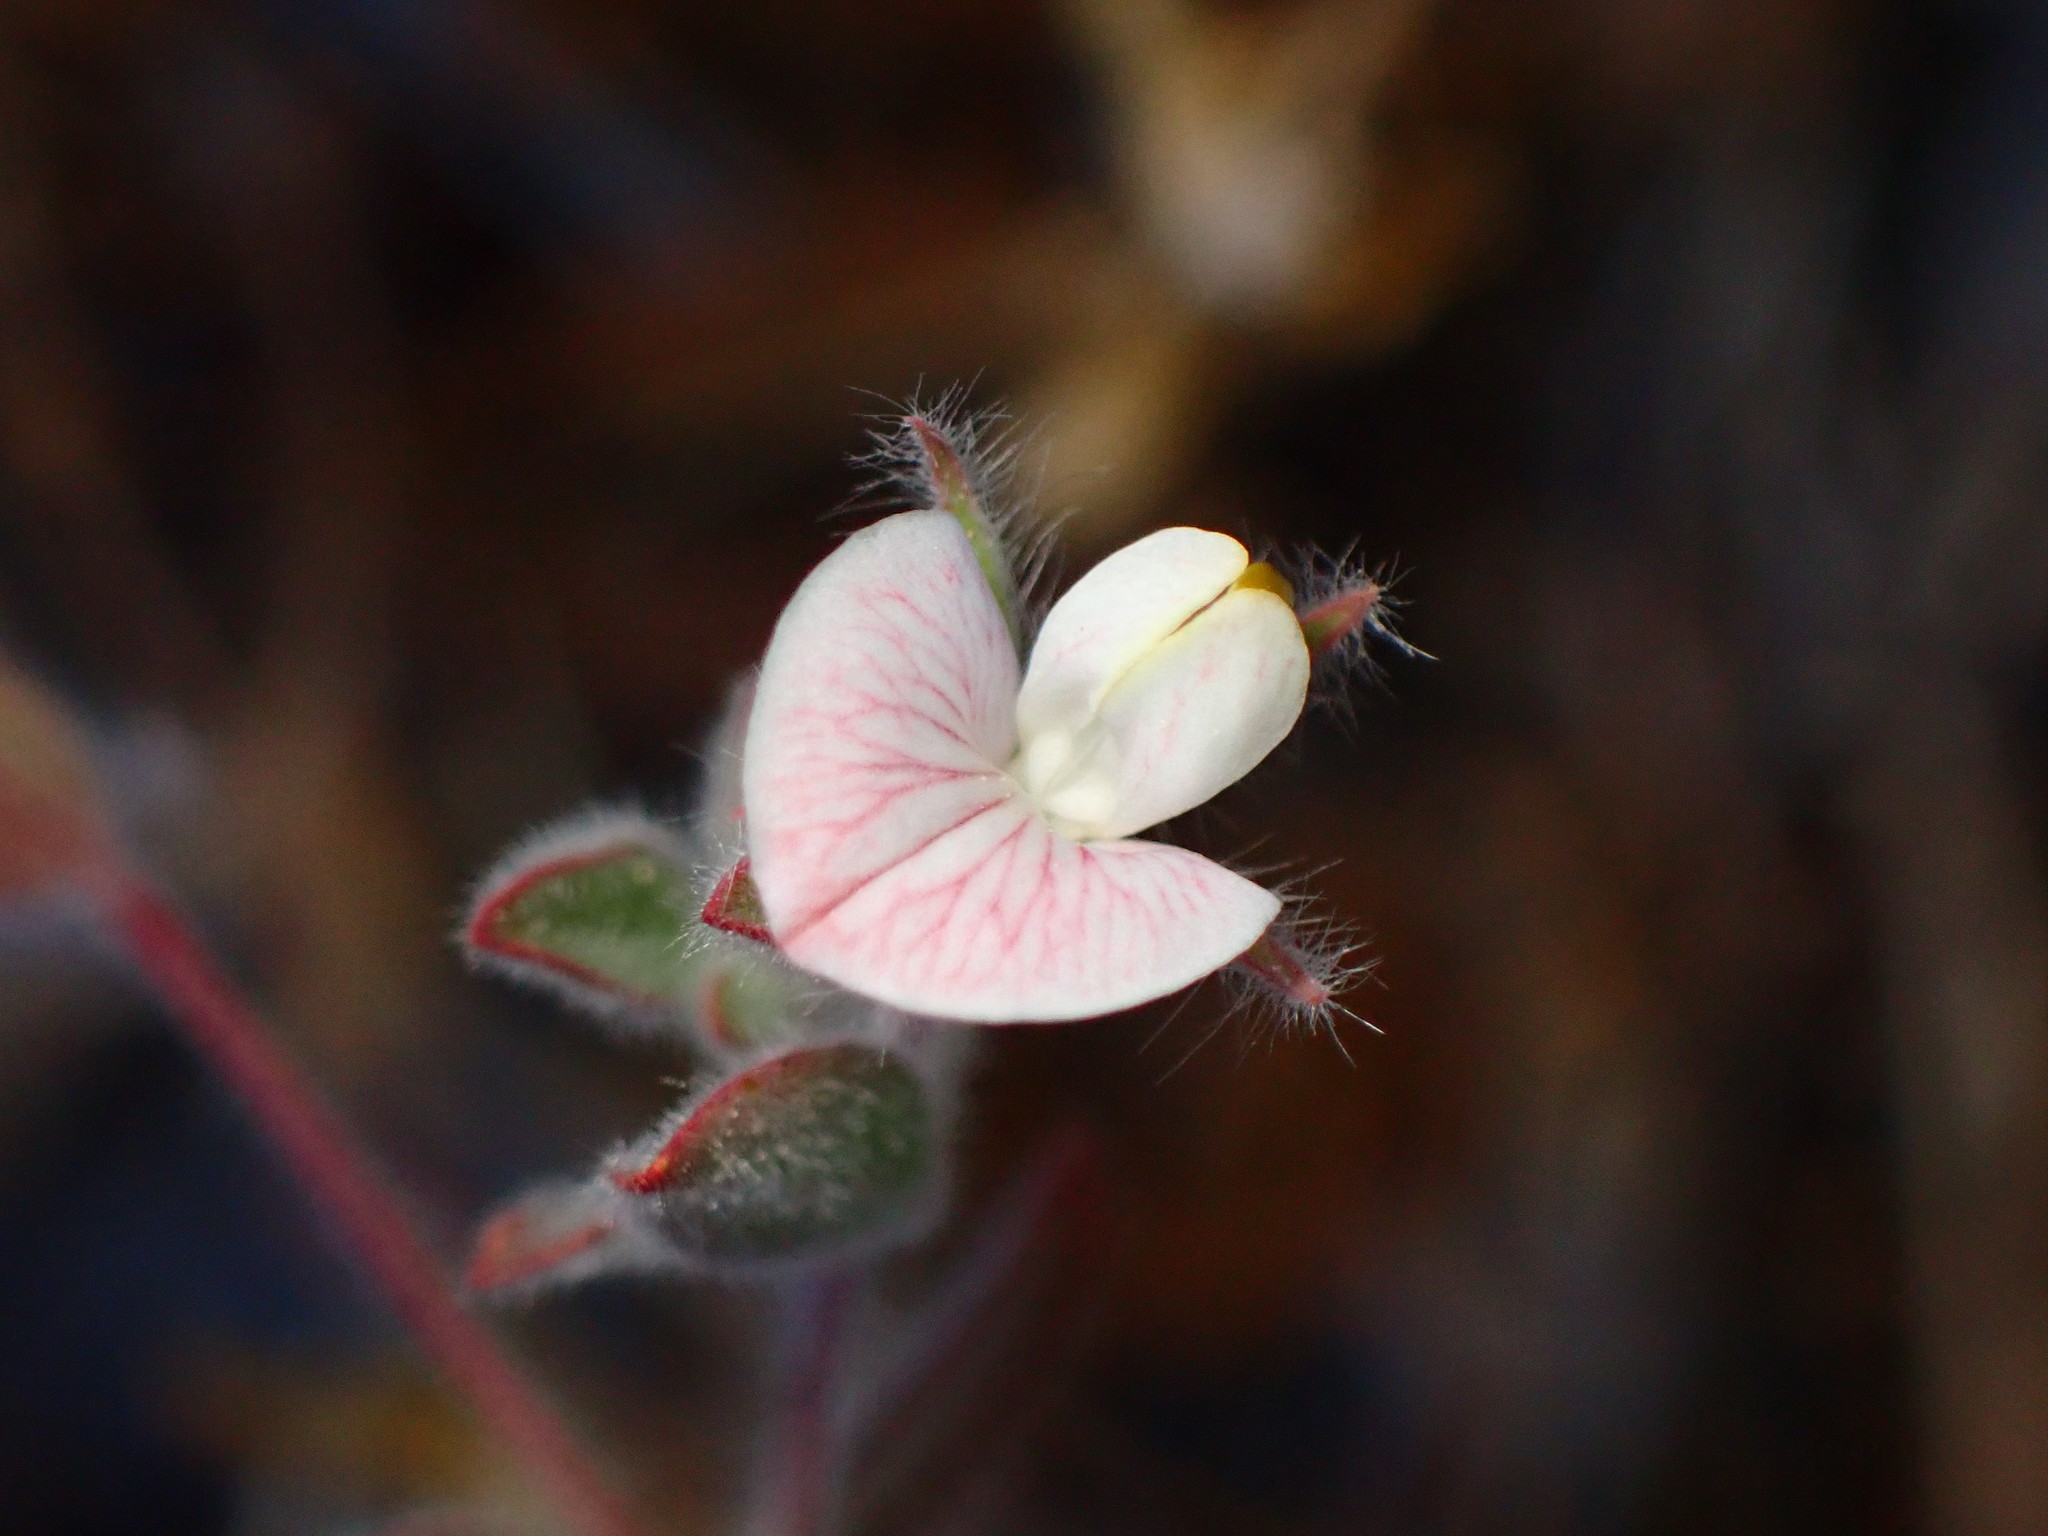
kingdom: Plantae
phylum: Tracheophyta
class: Magnoliopsida
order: Fabales
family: Fabaceae
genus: Acmispon
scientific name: Acmispon americanus
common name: American bird's-foot trefoil
